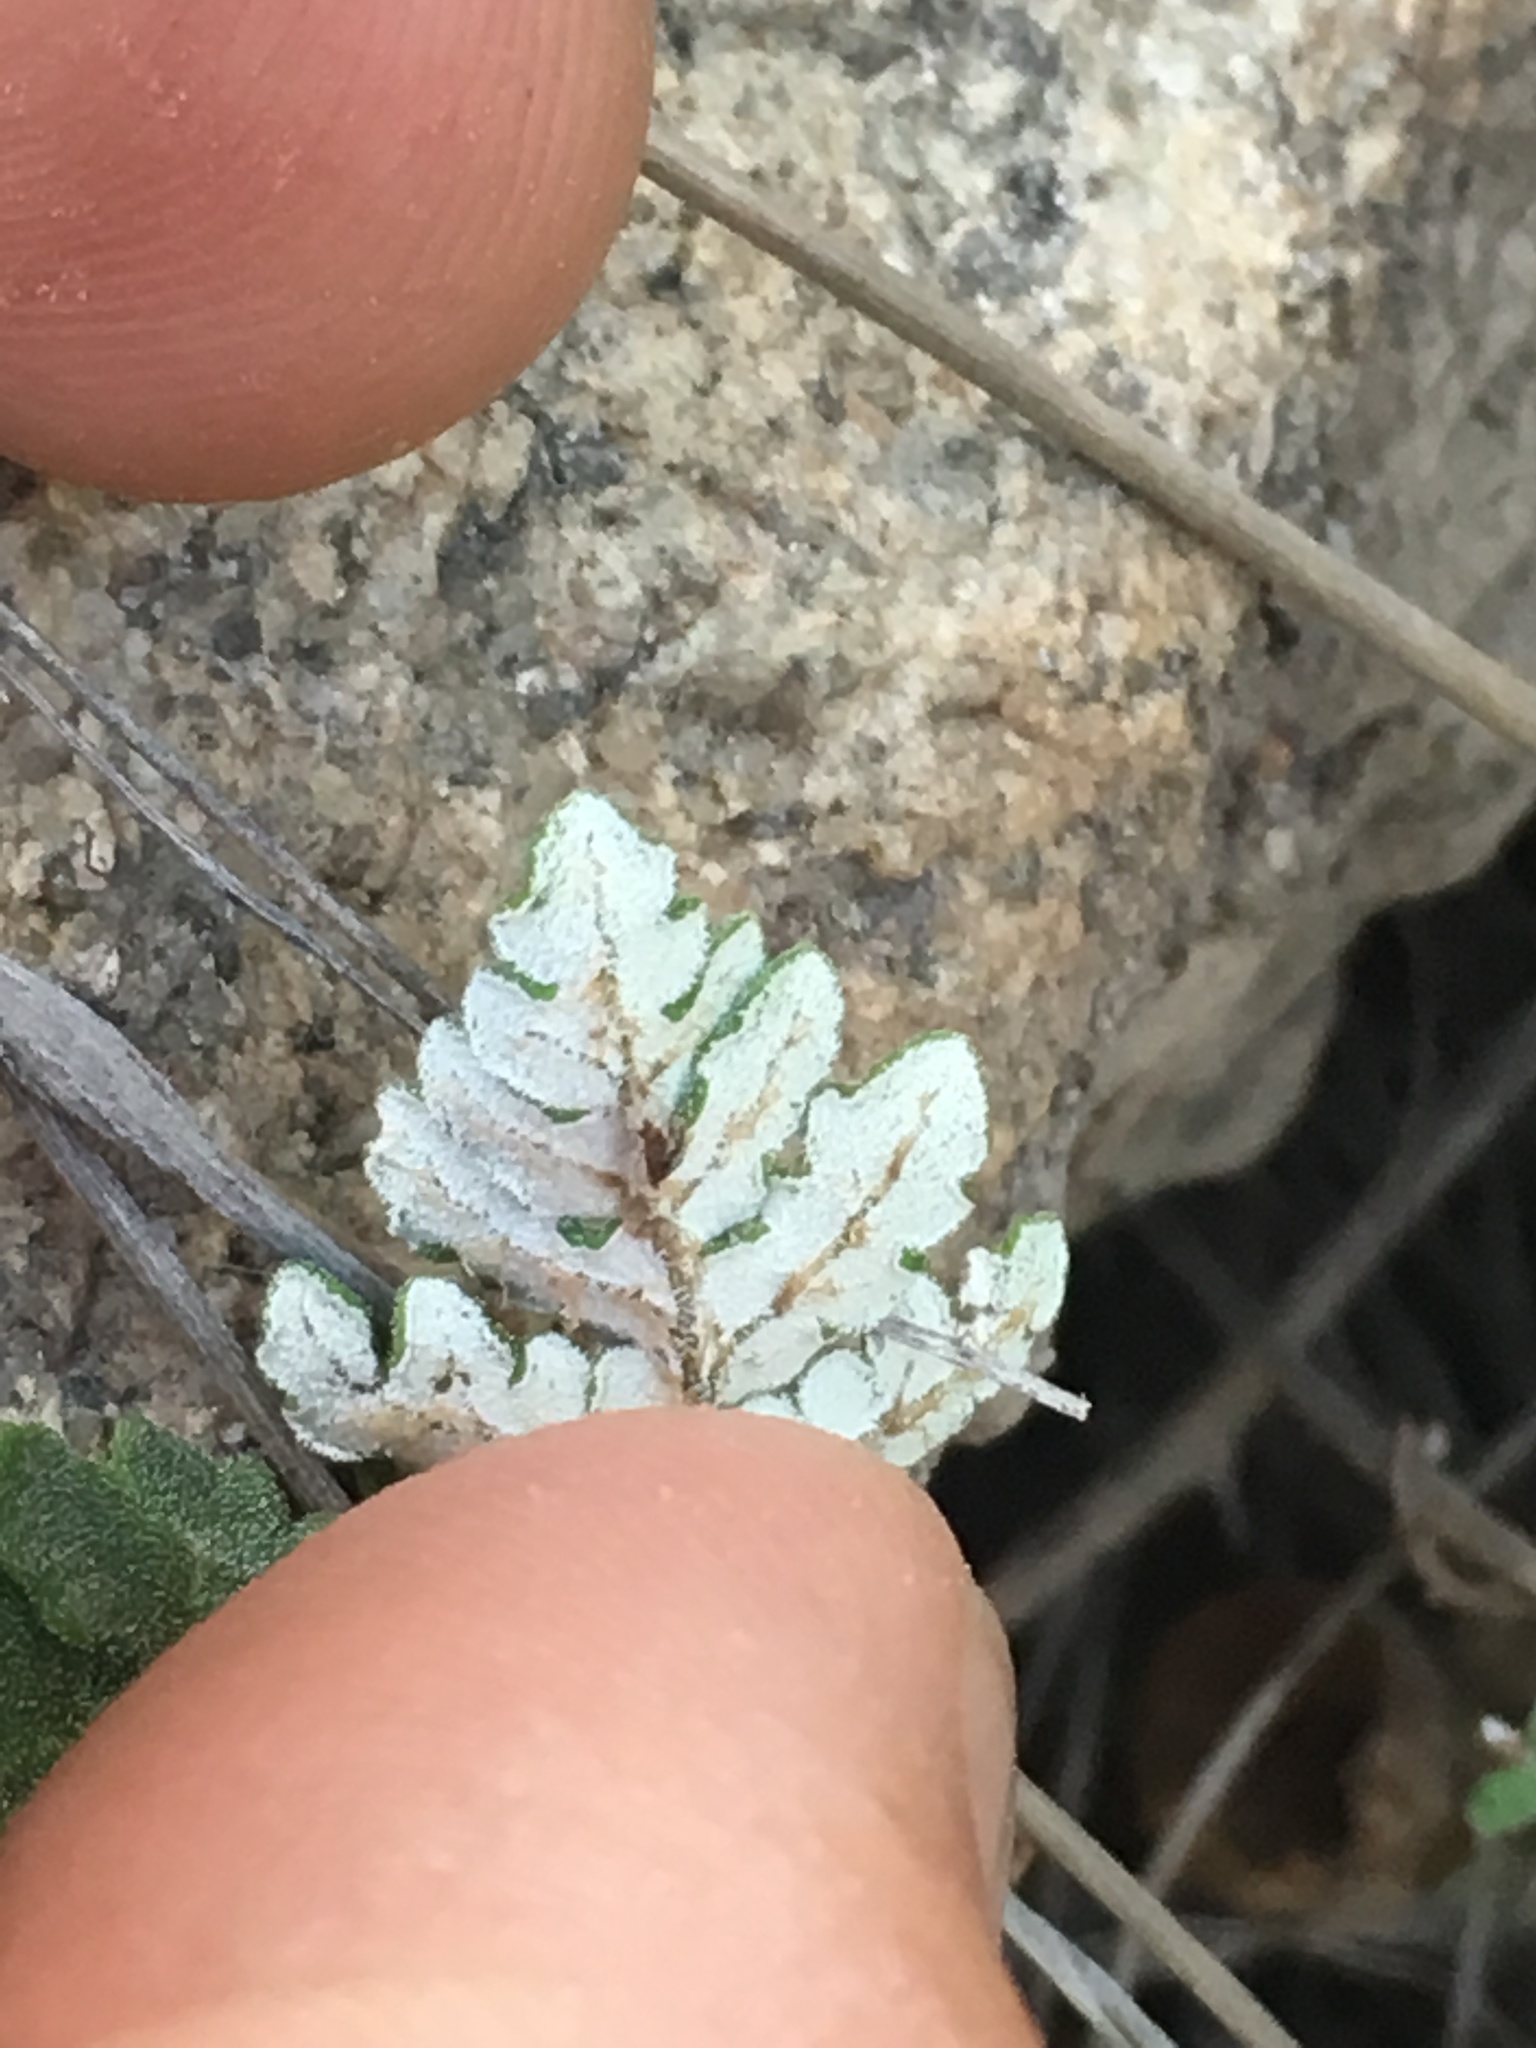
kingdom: Plantae
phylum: Tracheophyta
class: Polypodiopsida
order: Polypodiales
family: Pteridaceae
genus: Notholaena
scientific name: Notholaena grayi
